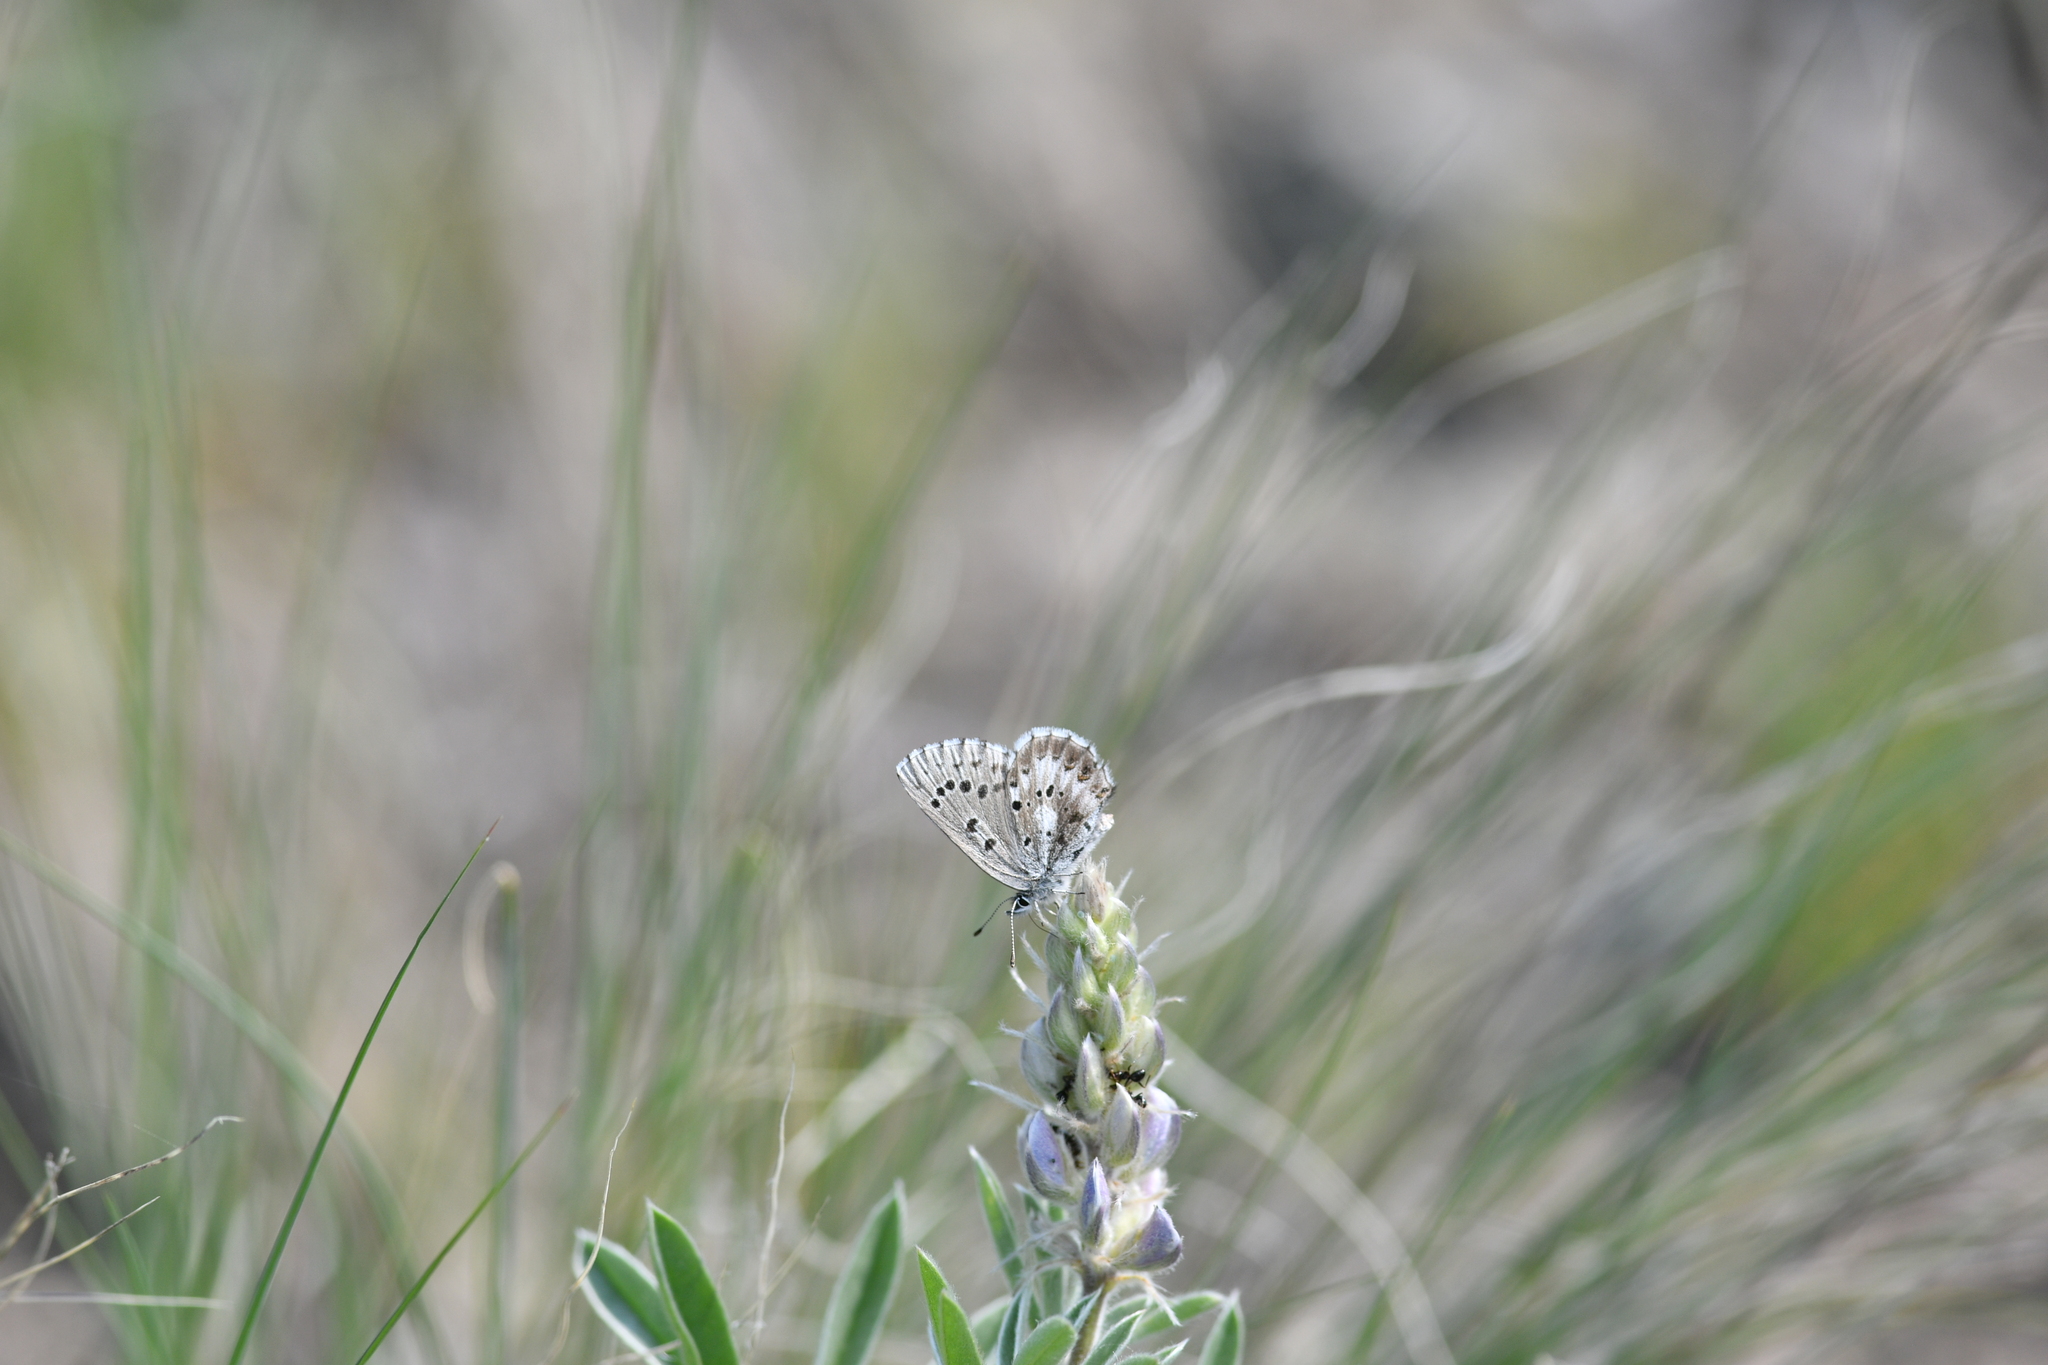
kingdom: Animalia
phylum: Arthropoda
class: Insecta
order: Lepidoptera
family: Lycaenidae
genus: Glaucopsyche
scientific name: Glaucopsyche piasus
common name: Arrowhead blue
